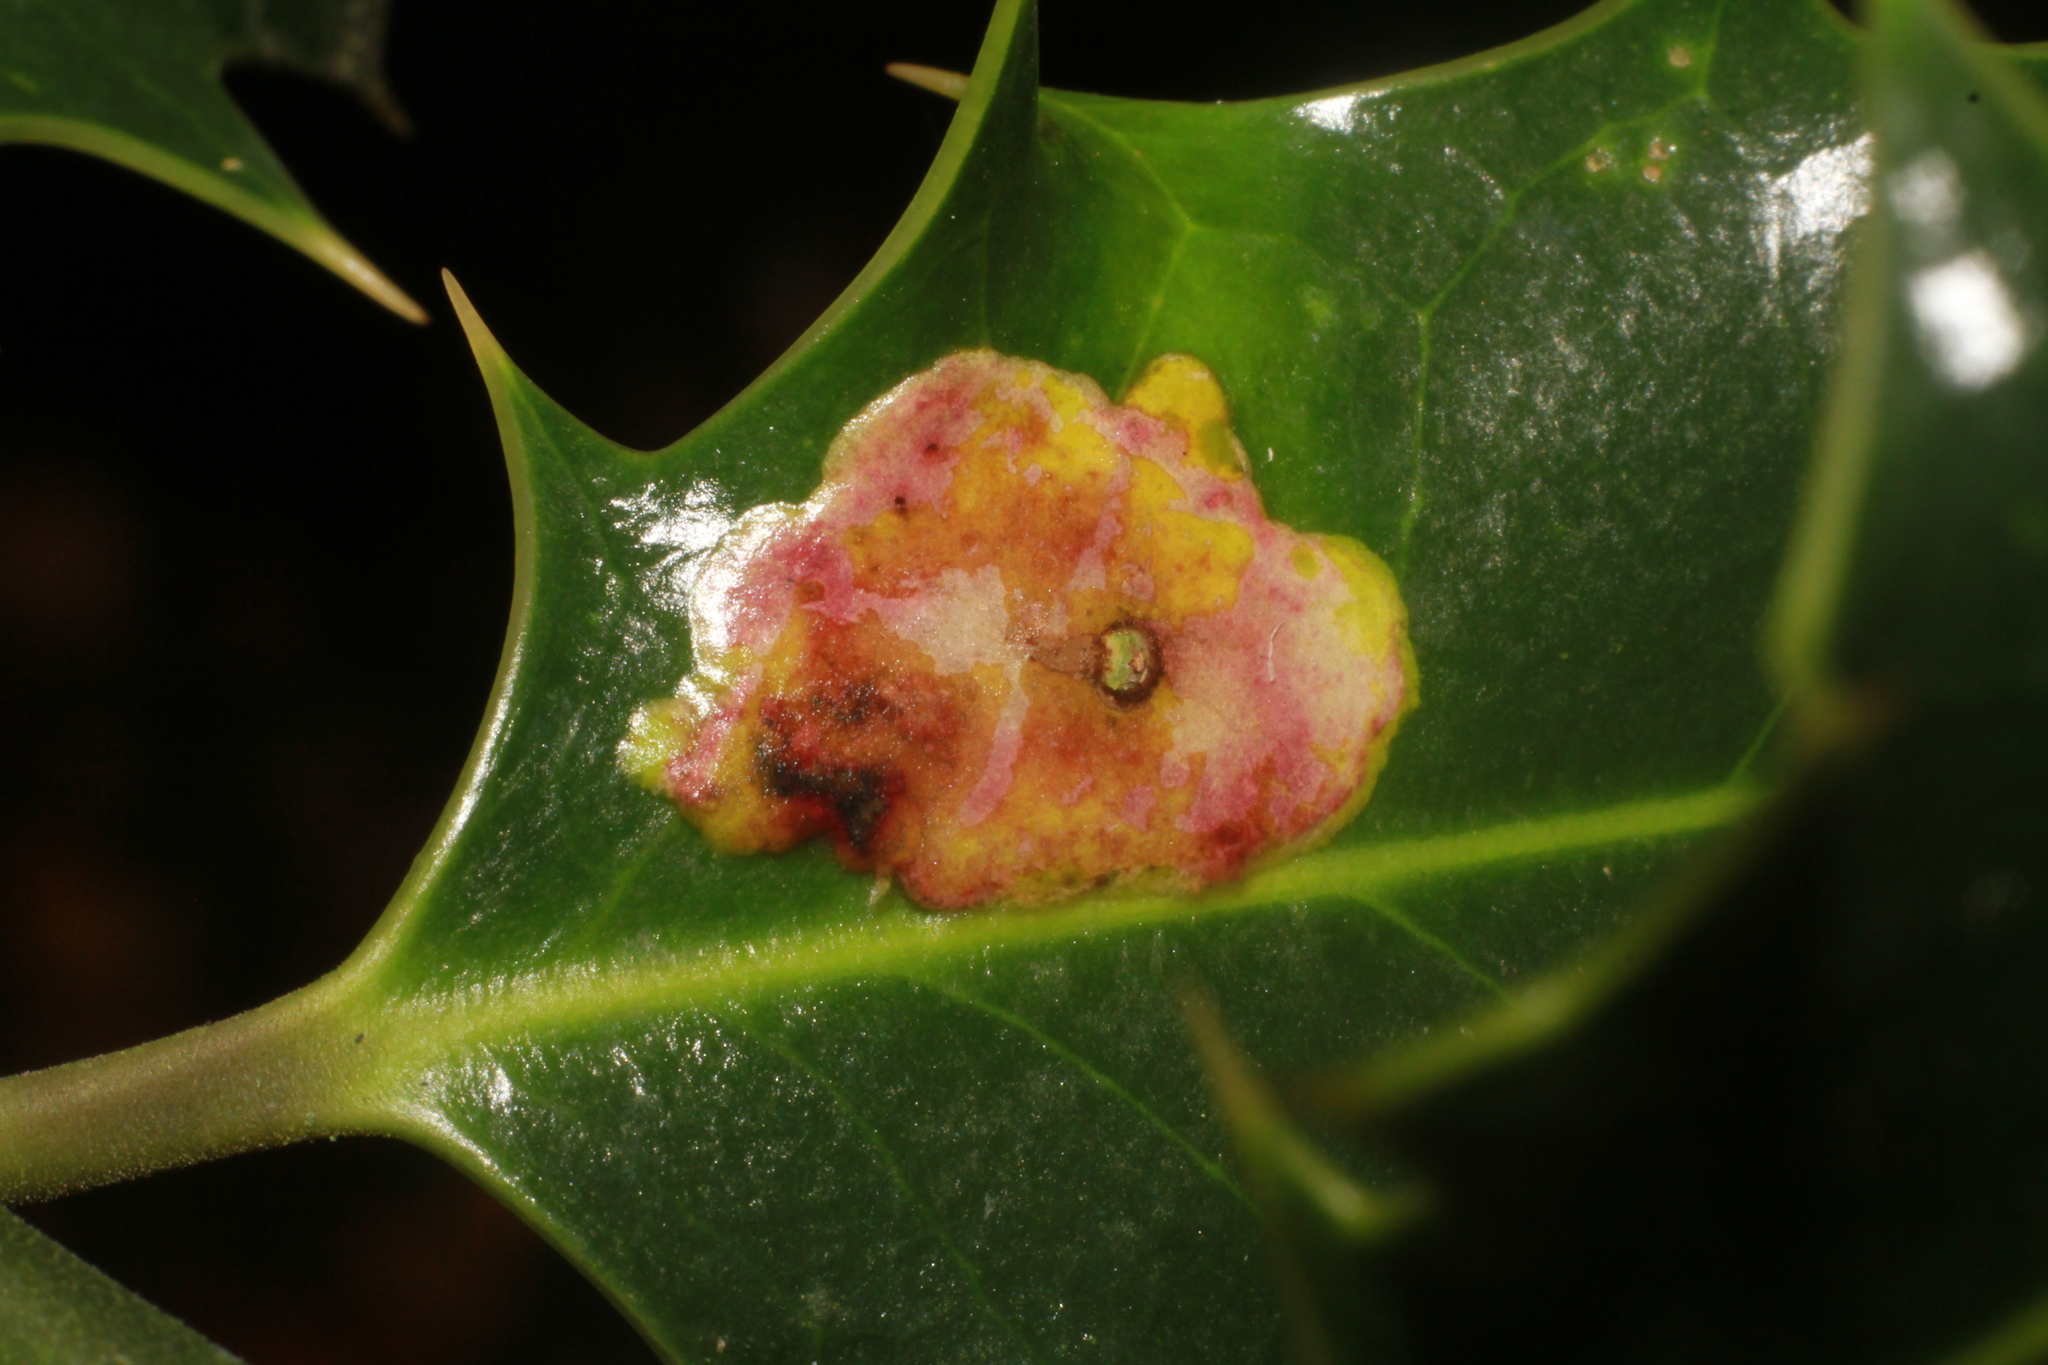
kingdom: Animalia
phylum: Arthropoda
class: Insecta
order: Diptera
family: Agromyzidae
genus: Phytomyza
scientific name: Phytomyza ilicis
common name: Holly leafminer
